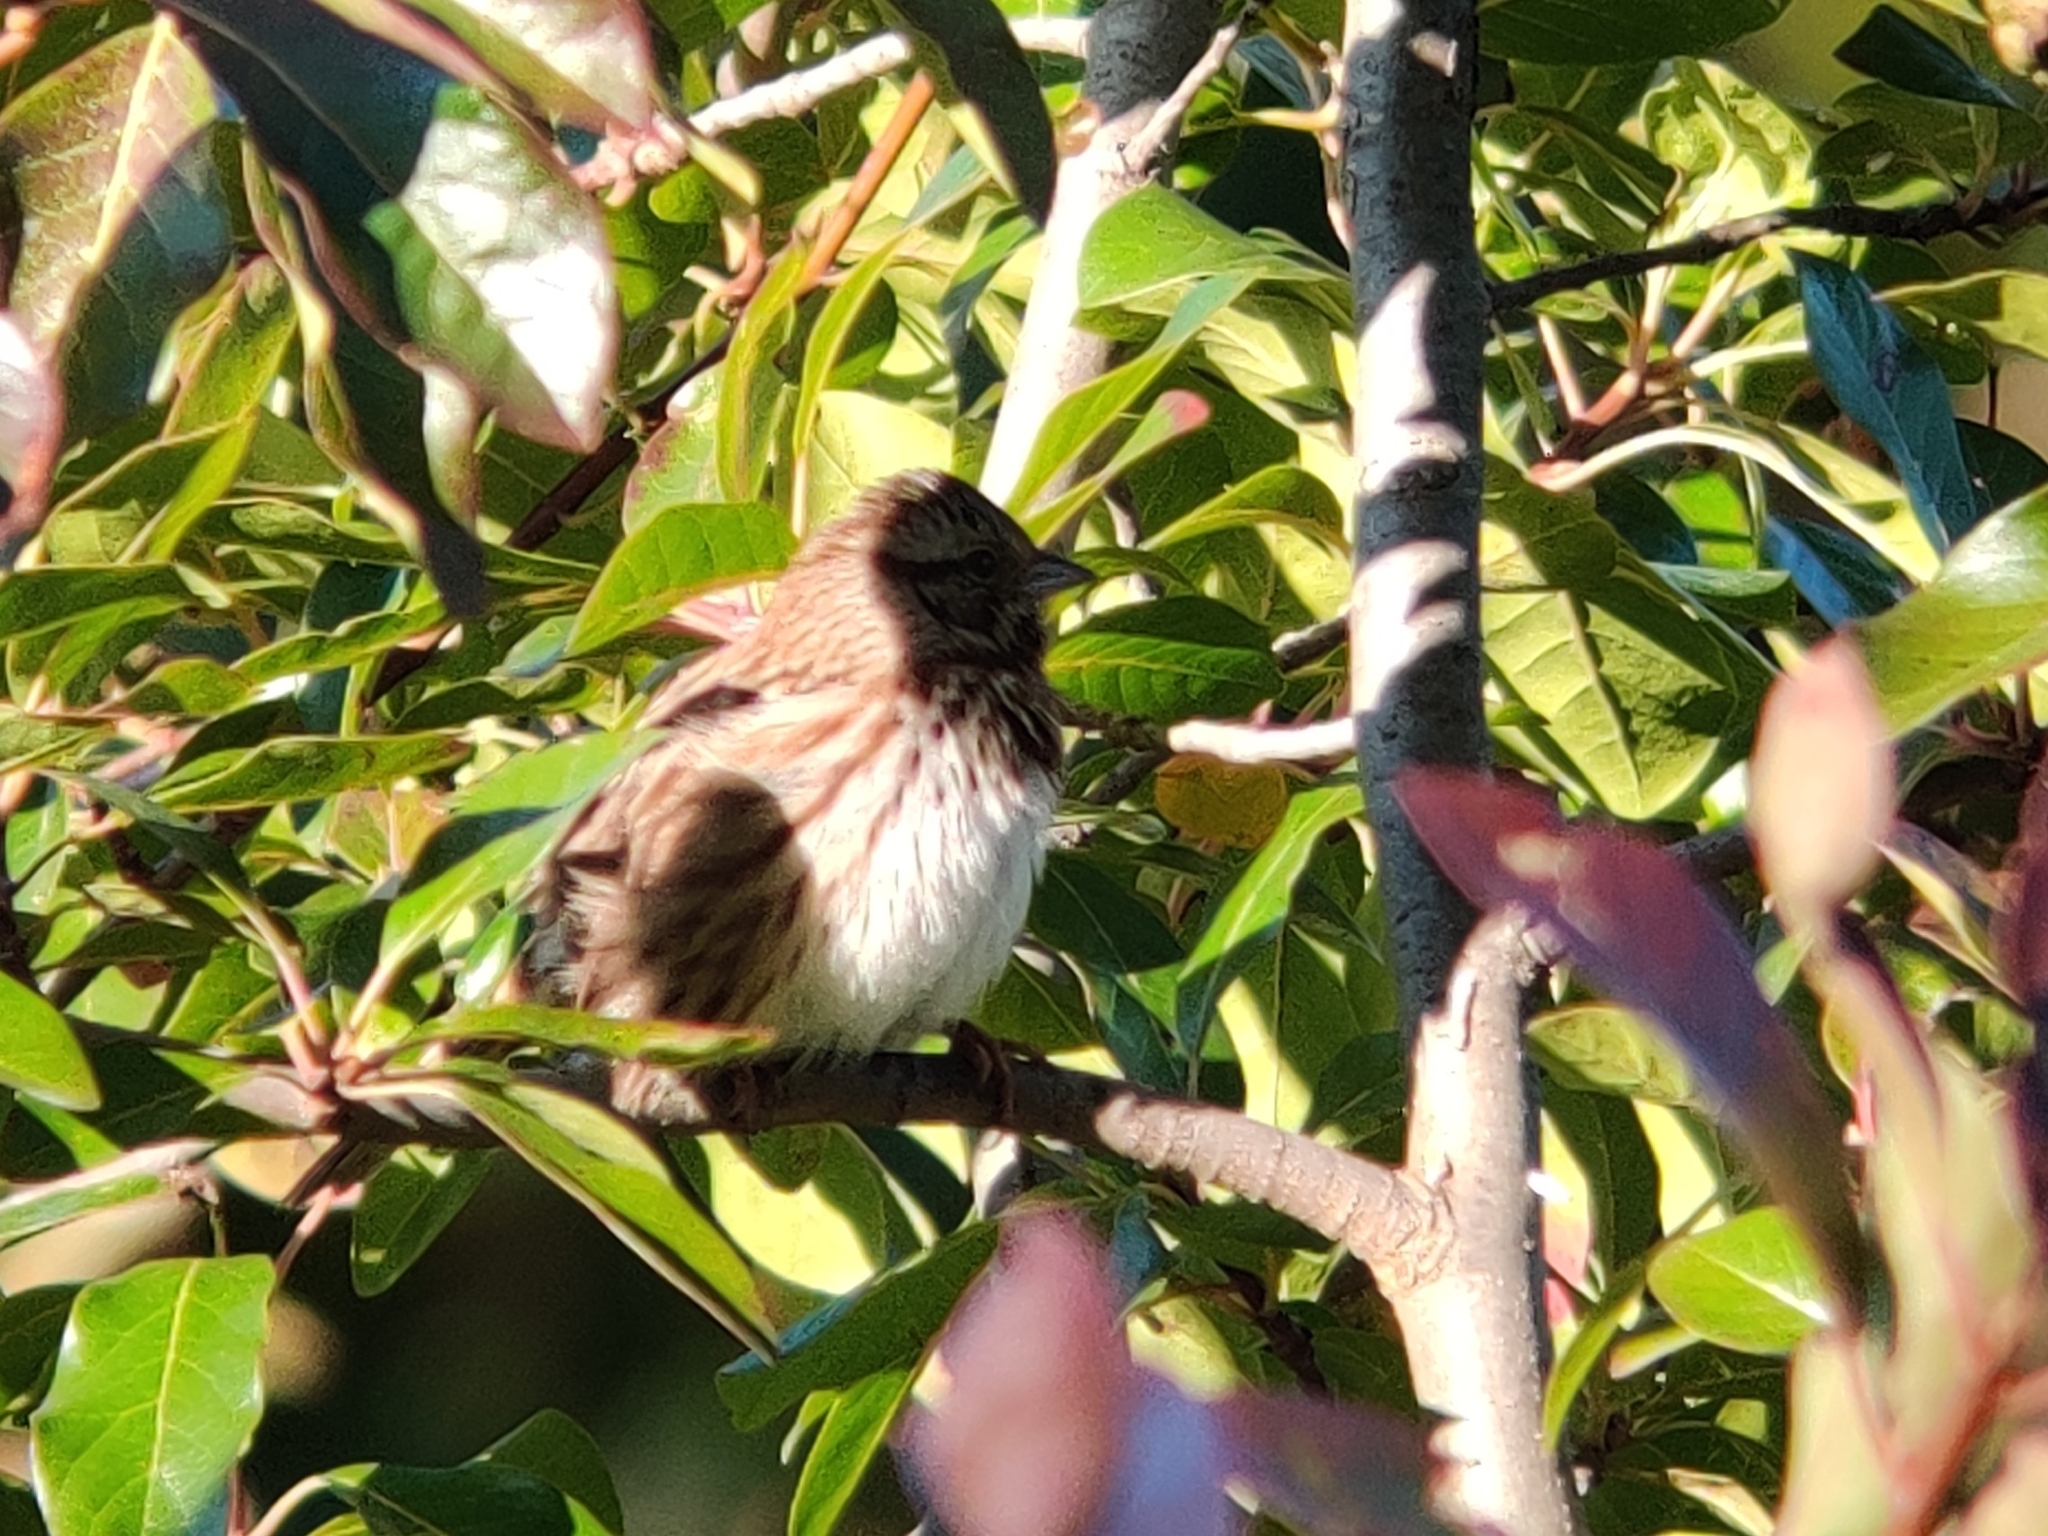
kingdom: Animalia
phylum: Chordata
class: Aves
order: Passeriformes
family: Passerellidae
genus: Melospiza
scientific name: Melospiza melodia
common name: Song sparrow
